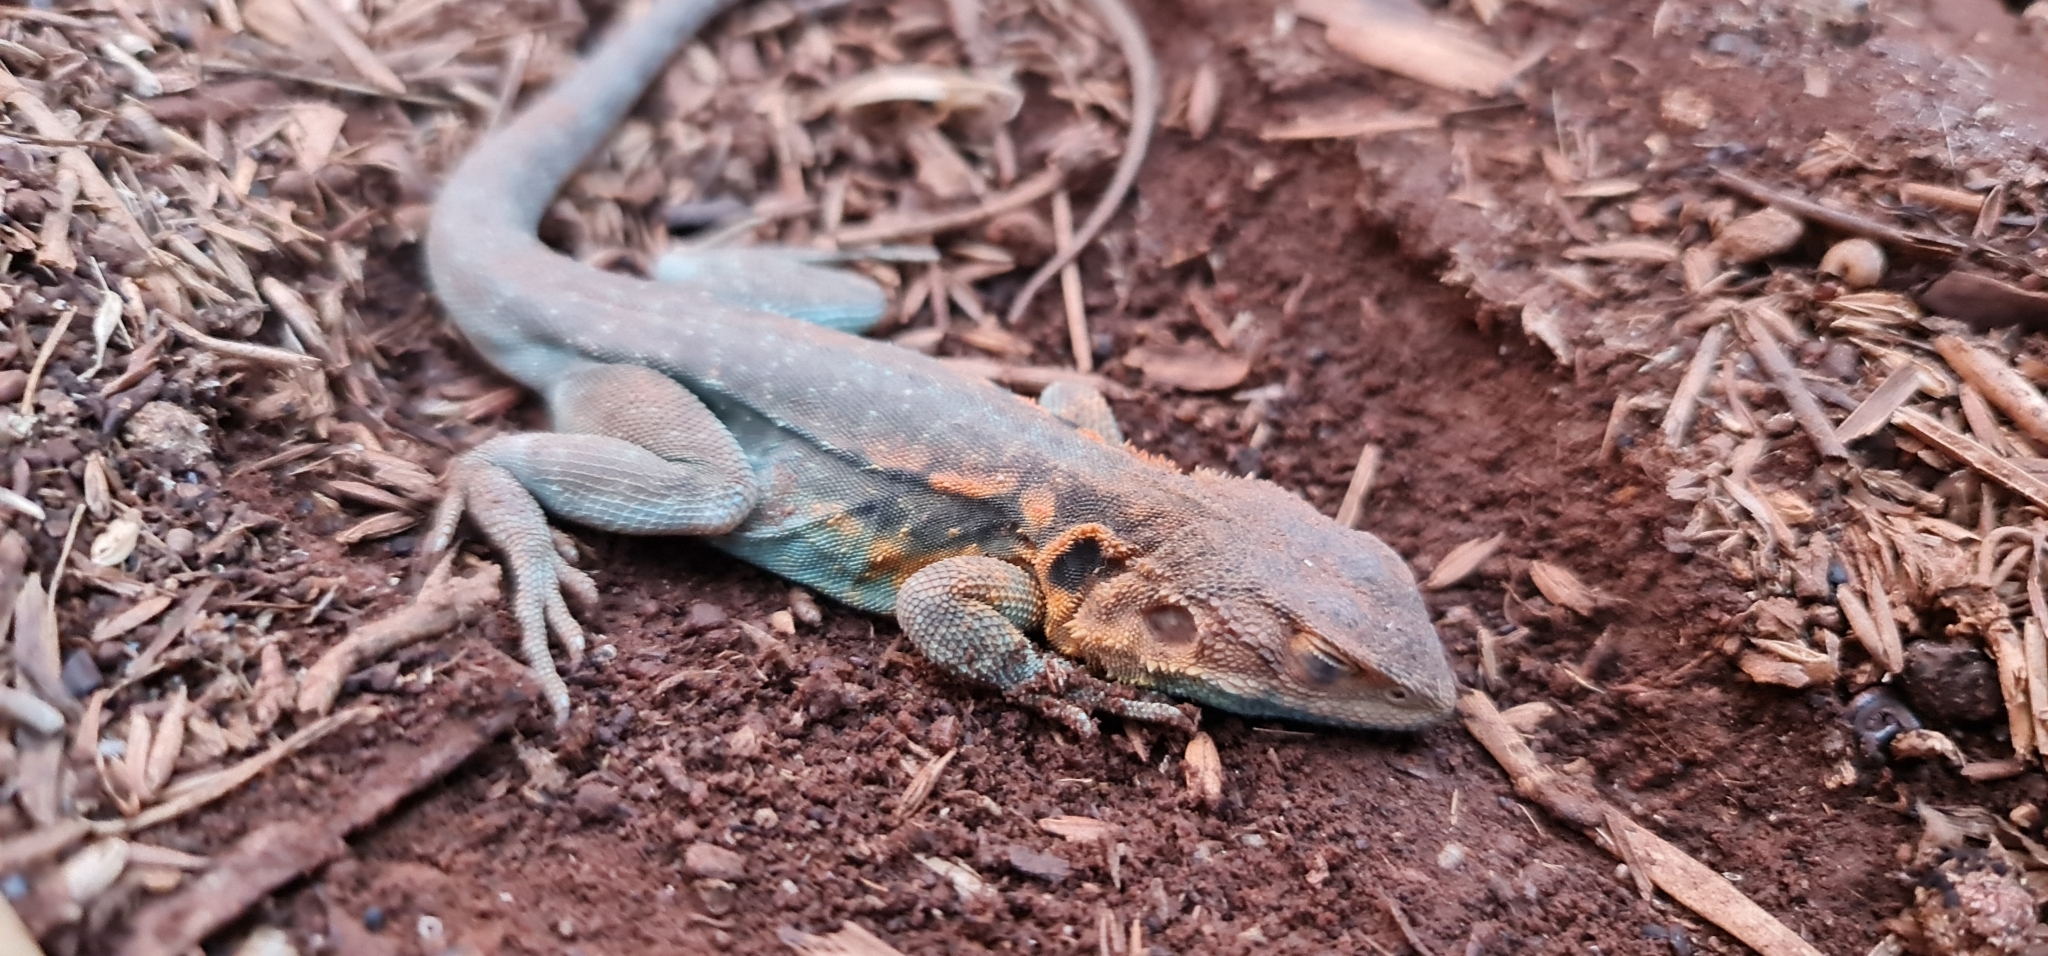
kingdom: Animalia
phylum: Chordata
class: Squamata
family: Agamidae
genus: Ctenophorus
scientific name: Ctenophorus decresii
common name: Tawny dragon
